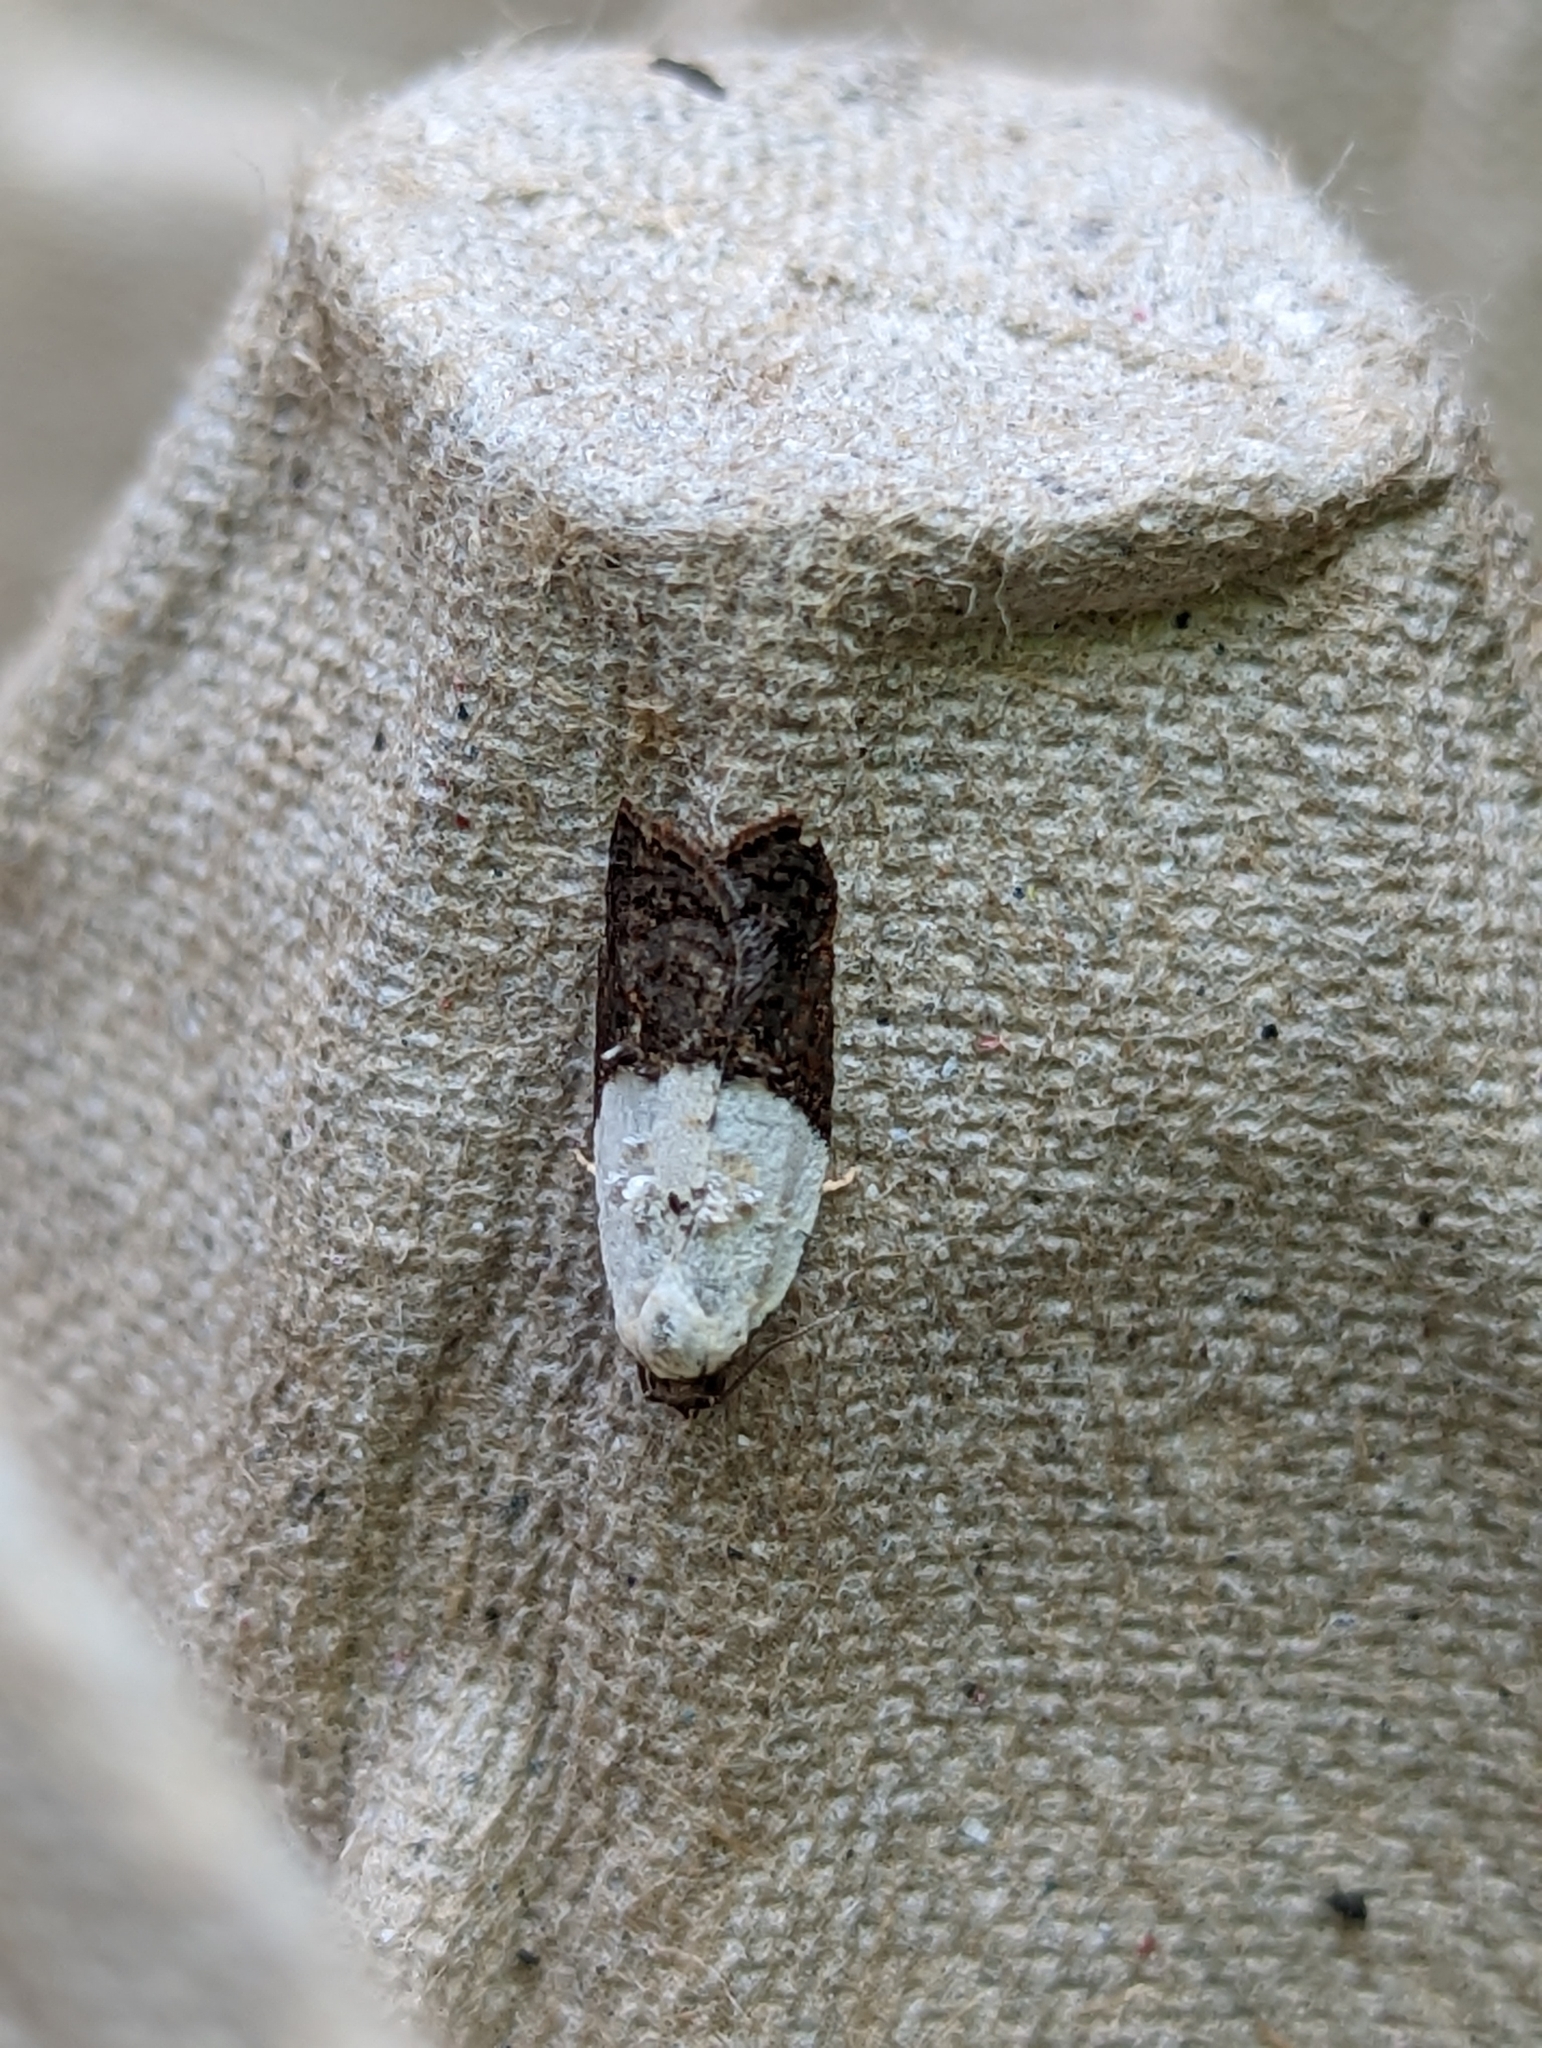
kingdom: Animalia
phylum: Arthropoda
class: Insecta
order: Lepidoptera
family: Tortricidae
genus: Acleris
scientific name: Acleris variegana
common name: Garden rose tortrix
